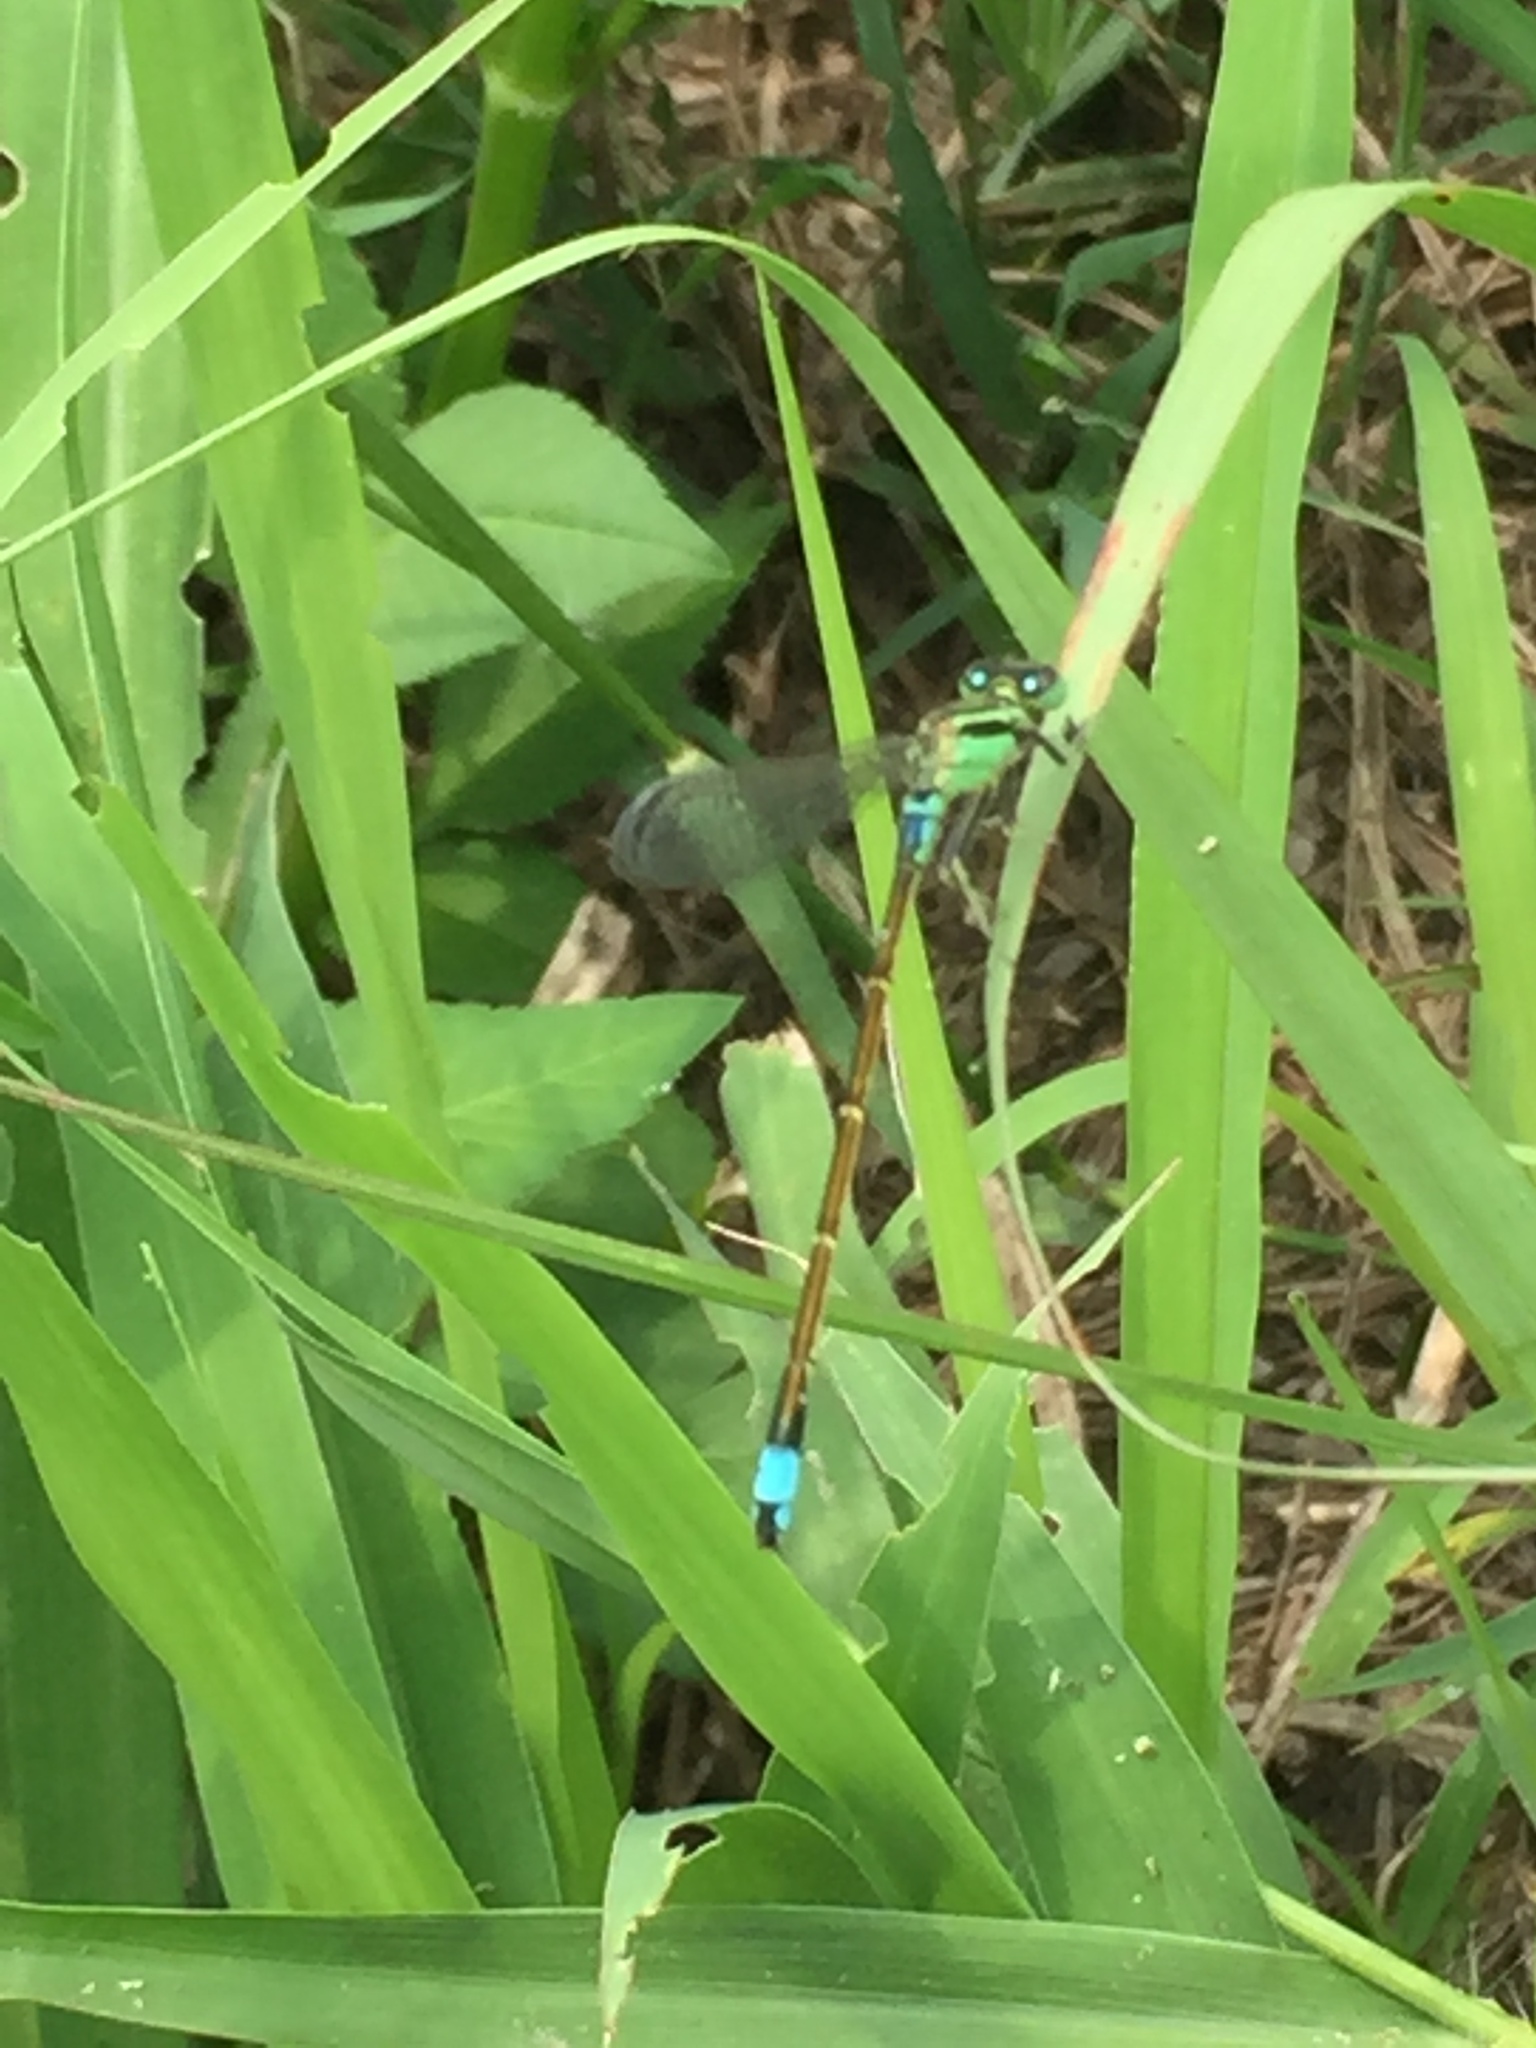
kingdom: Animalia
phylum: Arthropoda
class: Insecta
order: Odonata
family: Coenagrionidae
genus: Ischnura
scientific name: Ischnura senegalensis
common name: Tropical bluetail
